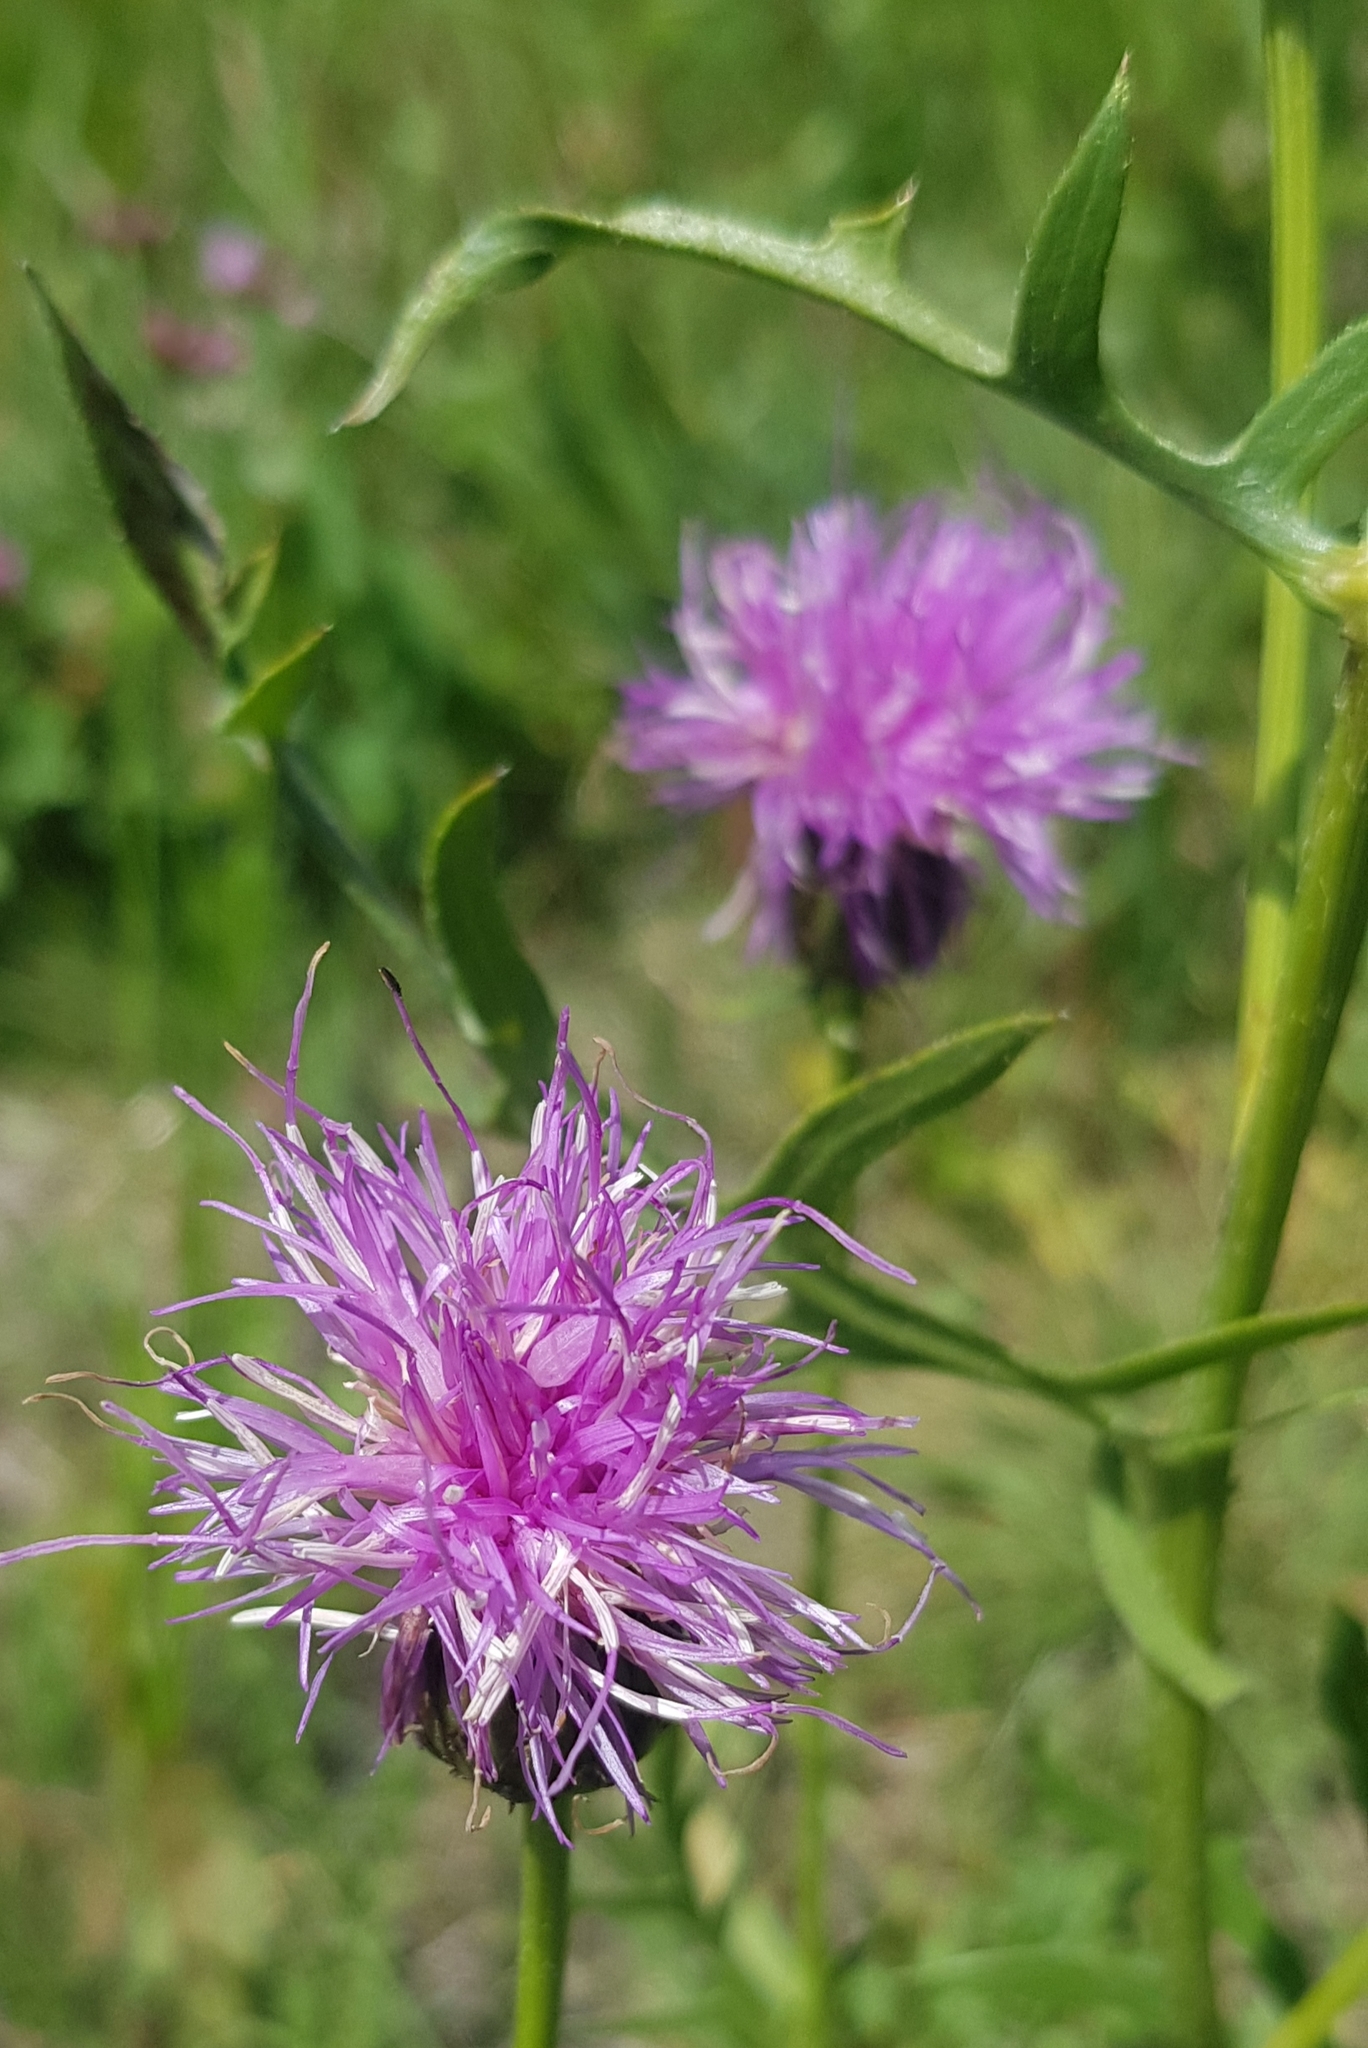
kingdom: Plantae
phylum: Tracheophyta
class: Magnoliopsida
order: Asterales
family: Asteraceae
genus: Klasea
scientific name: Klasea centauroides
